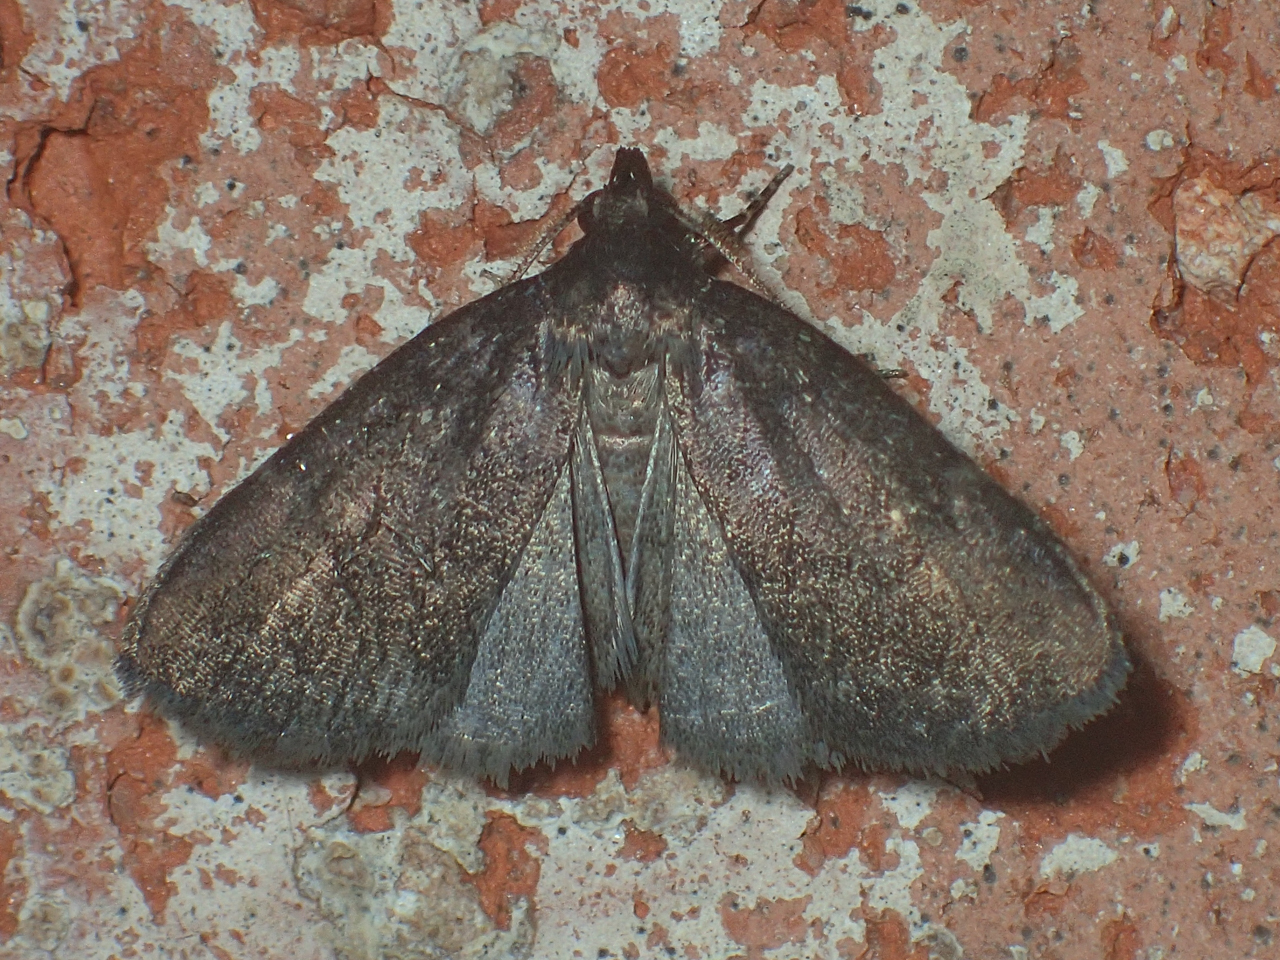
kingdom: Animalia
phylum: Arthropoda
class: Insecta
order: Lepidoptera
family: Erebidae
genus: Idia
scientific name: Idia rotundalis
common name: Rotund idia moth
